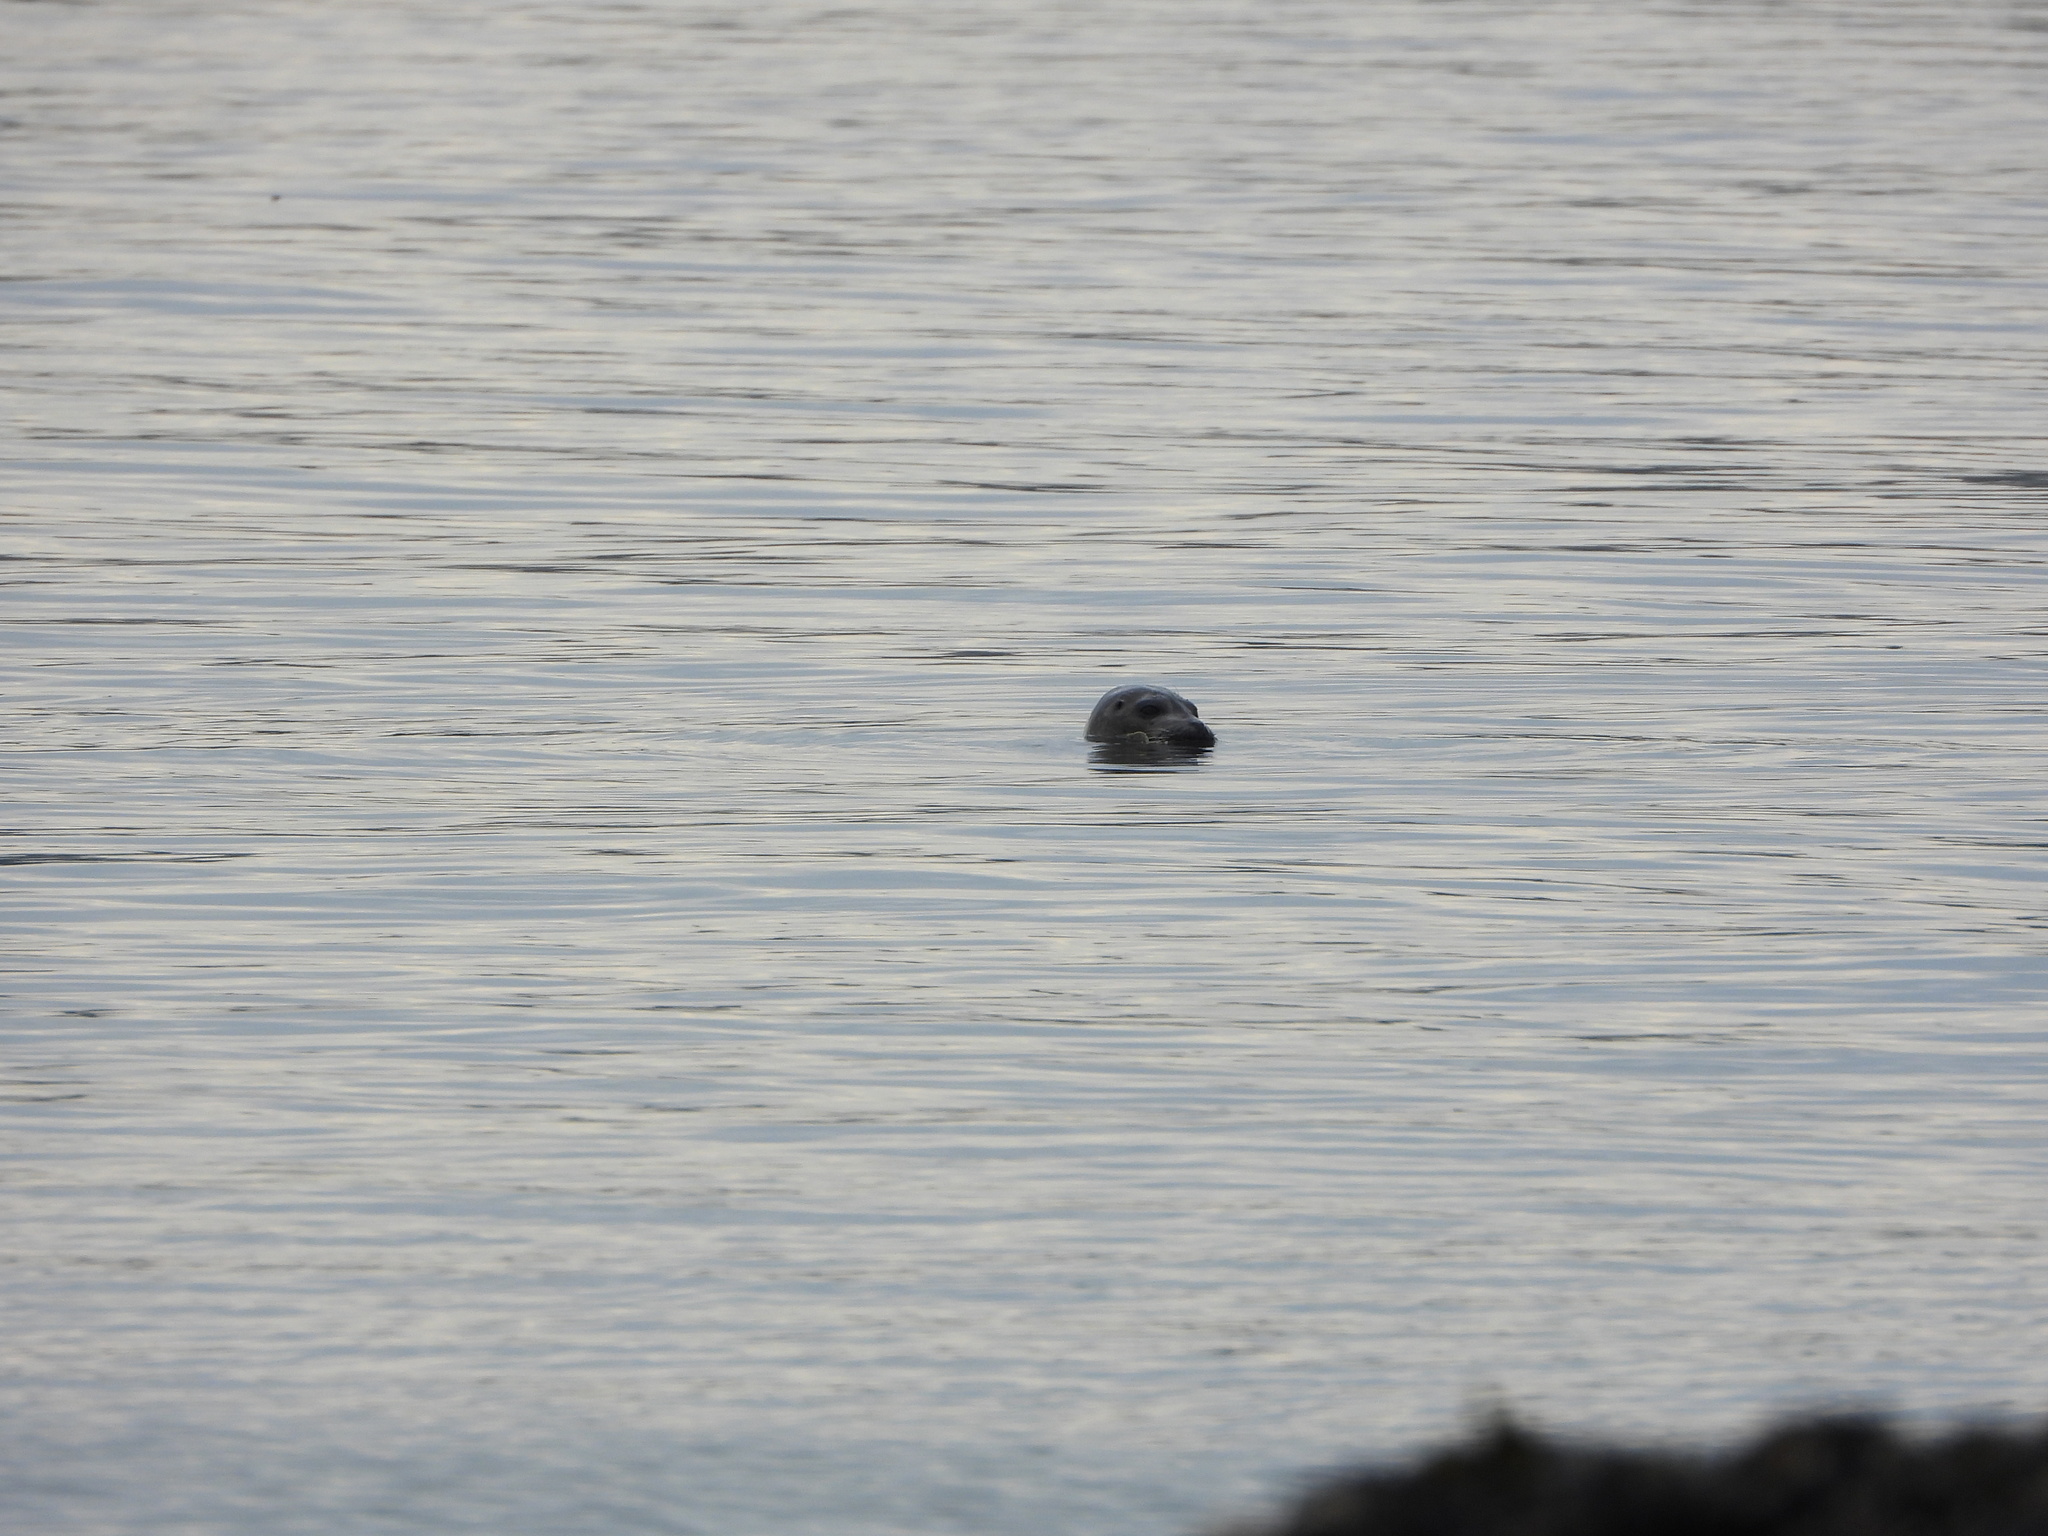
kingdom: Animalia
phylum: Chordata
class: Mammalia
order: Carnivora
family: Phocidae
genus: Phoca
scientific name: Phoca vitulina
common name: Harbor seal
